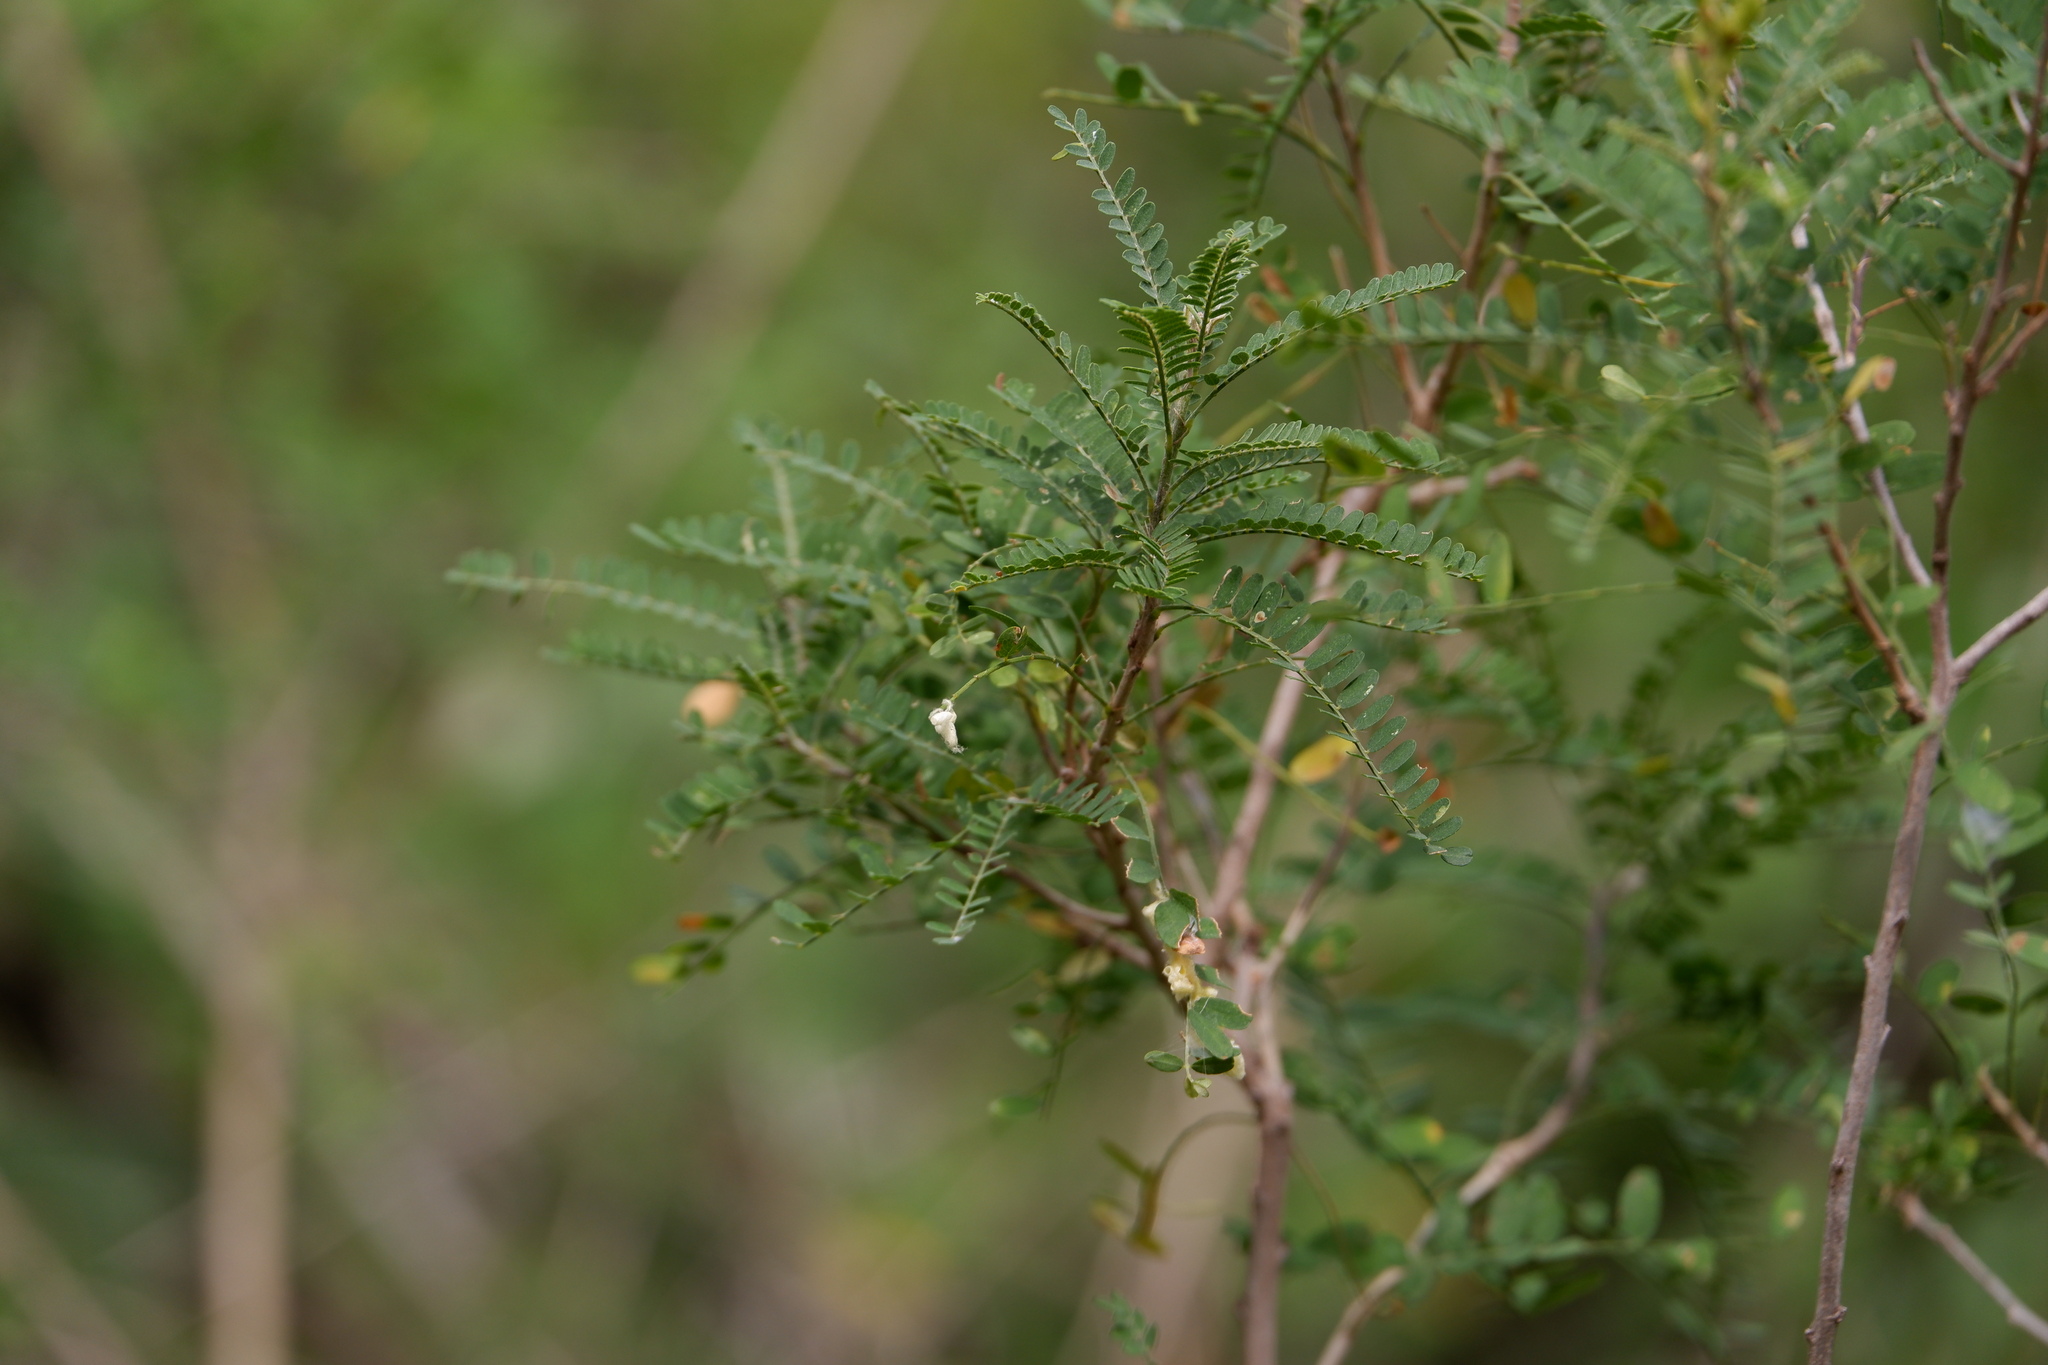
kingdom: Plantae
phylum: Tracheophyta
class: Magnoliopsida
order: Fabales
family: Fabaceae
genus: Eysenhardtia
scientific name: Eysenhardtia texana
